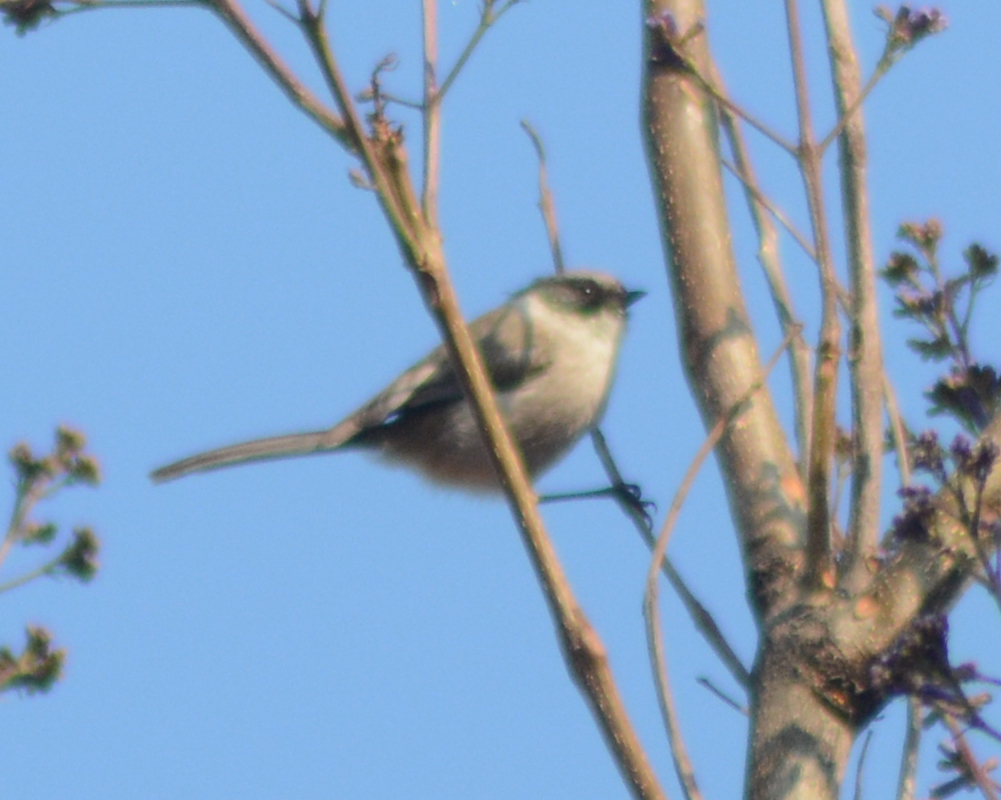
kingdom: Animalia
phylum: Chordata
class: Aves
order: Passeriformes
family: Aegithalidae
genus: Psaltriparus
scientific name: Psaltriparus minimus
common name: American bushtit
